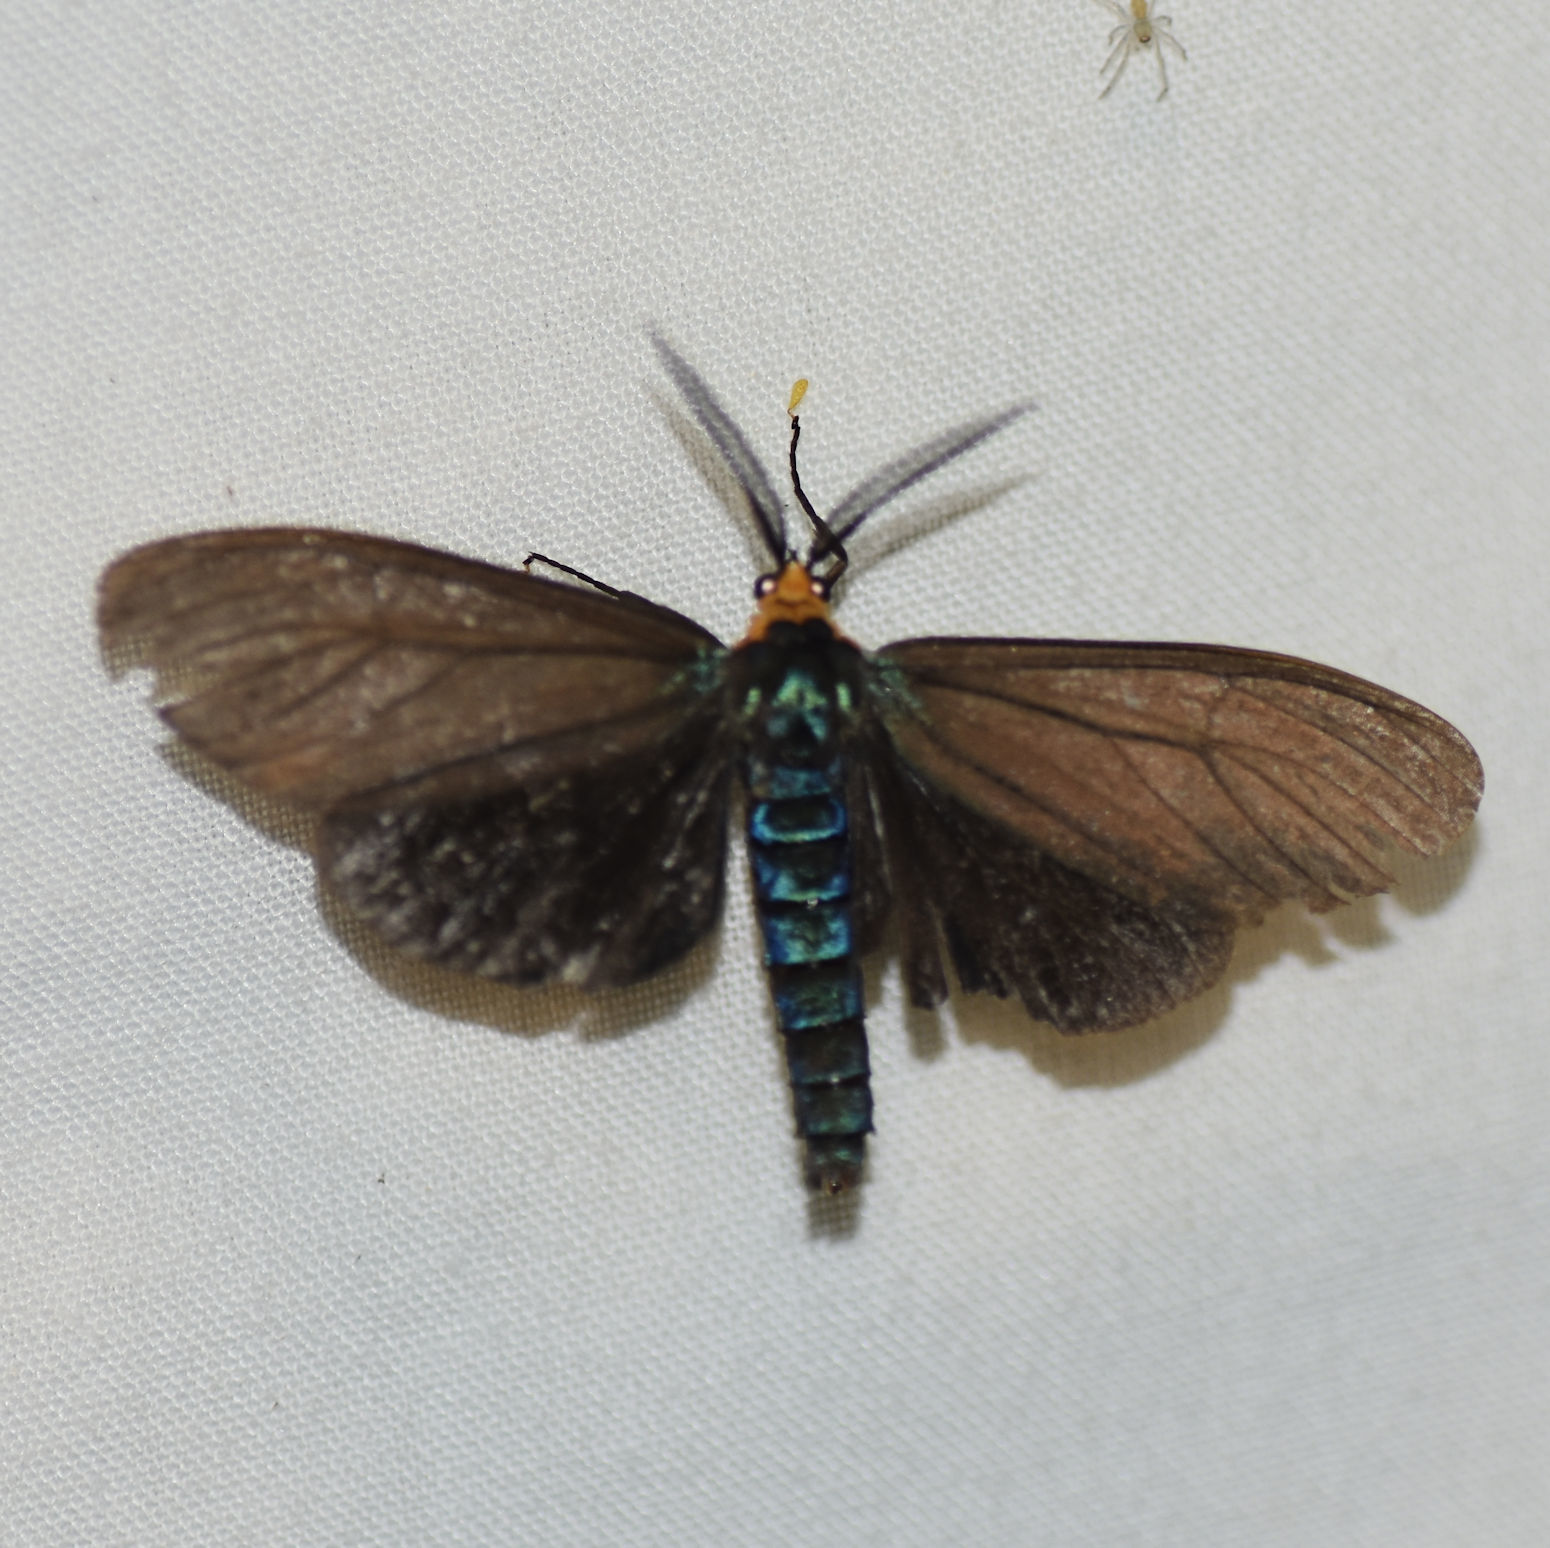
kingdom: Animalia
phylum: Arthropoda
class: Insecta
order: Lepidoptera
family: Erebidae
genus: Ctenucha
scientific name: Ctenucha virginica
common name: Virginia ctenucha moth
